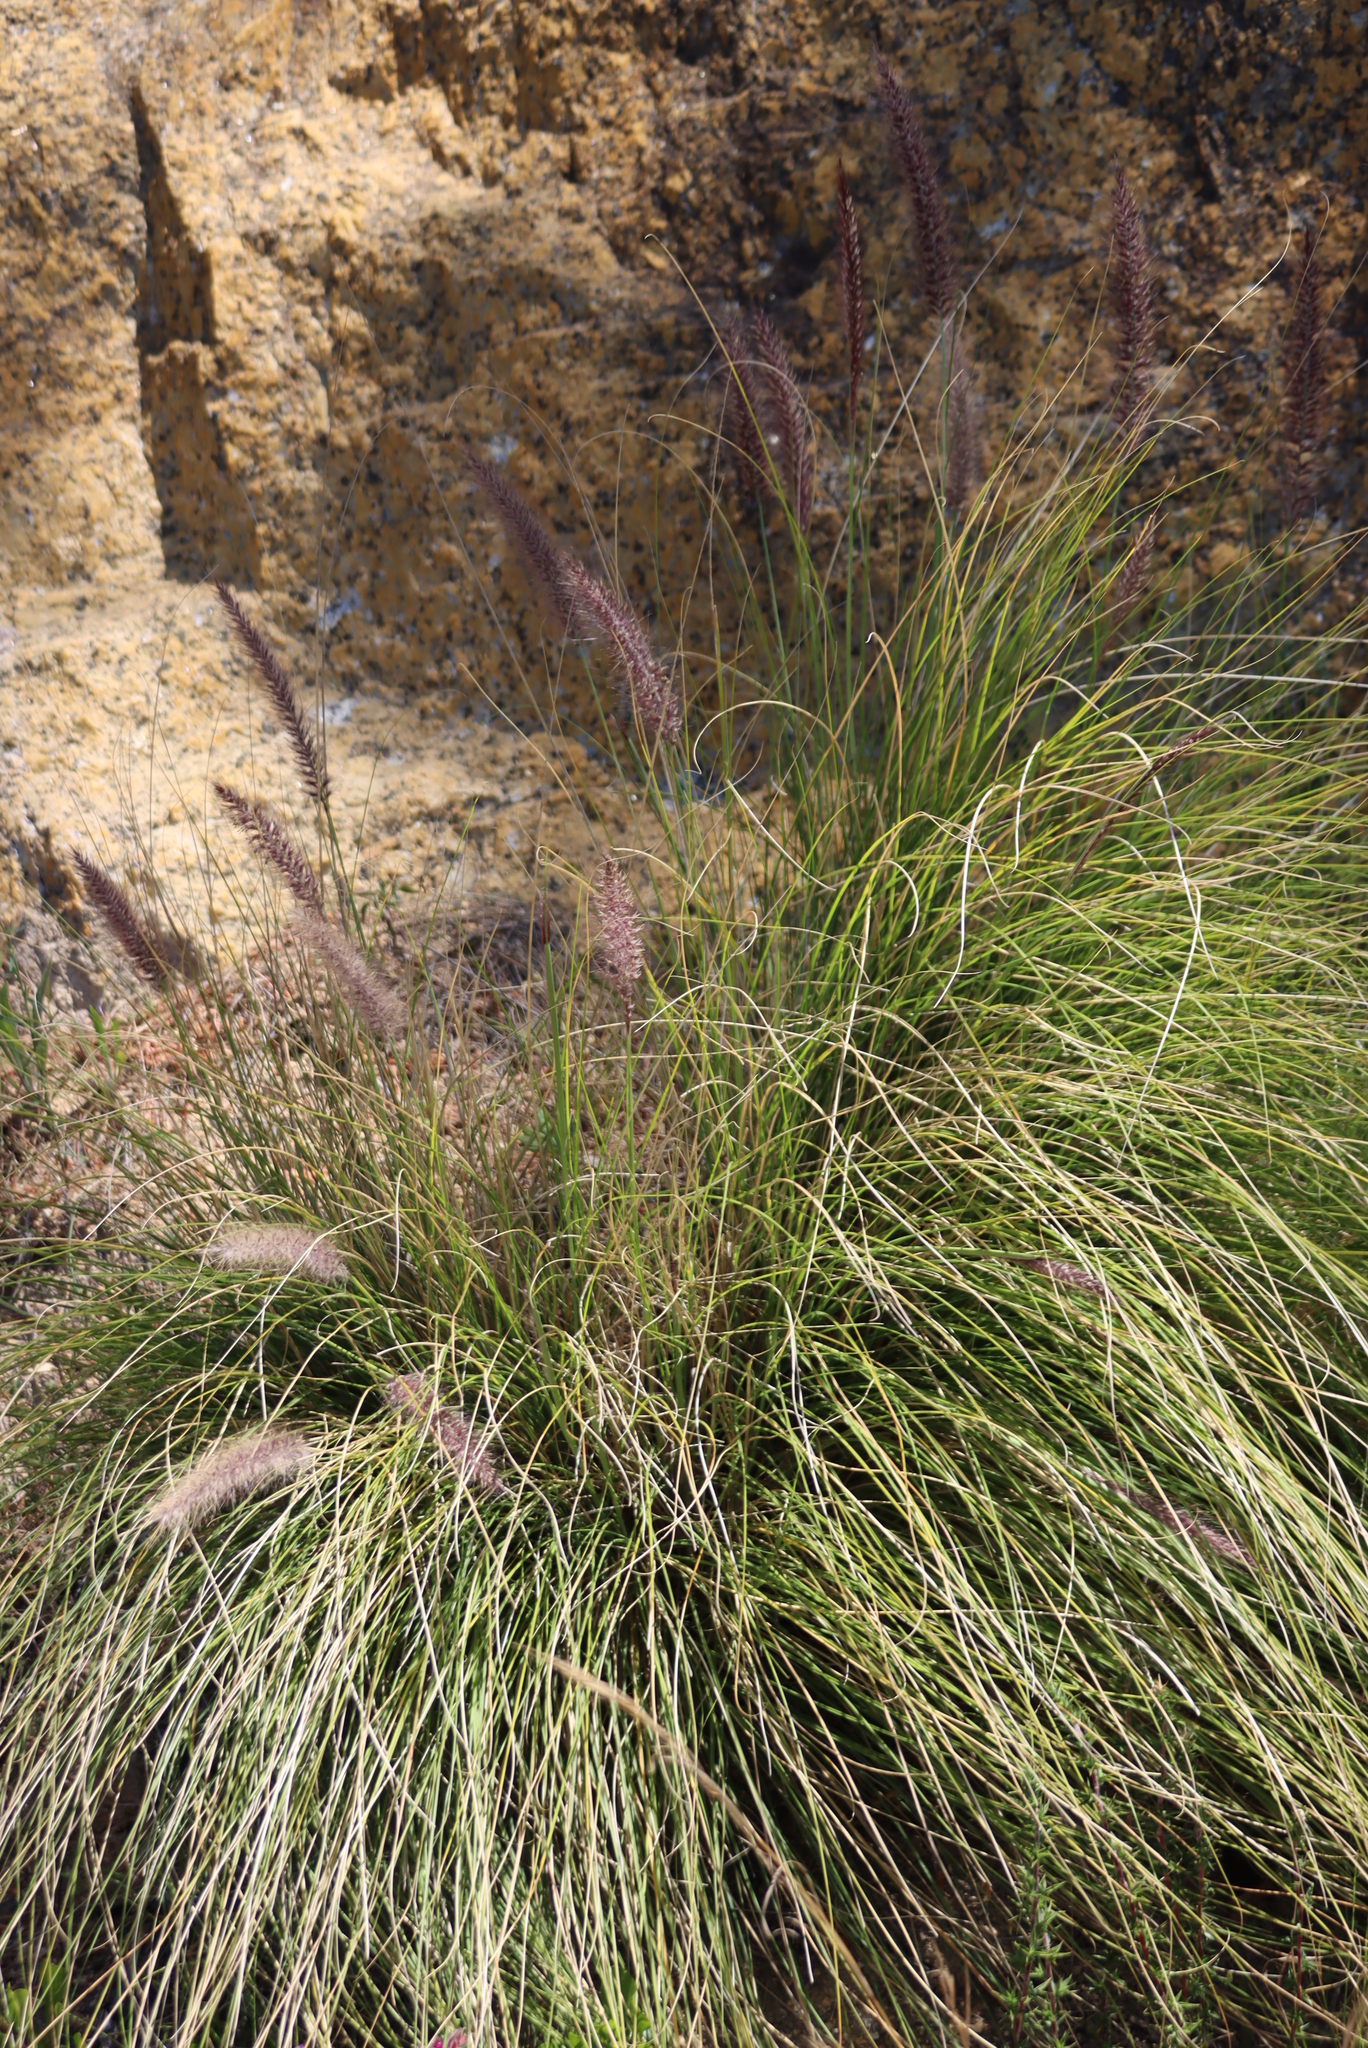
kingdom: Plantae
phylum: Tracheophyta
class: Liliopsida
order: Poales
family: Poaceae
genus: Cenchrus
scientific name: Cenchrus setaceus
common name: Crimson fountaingrass
